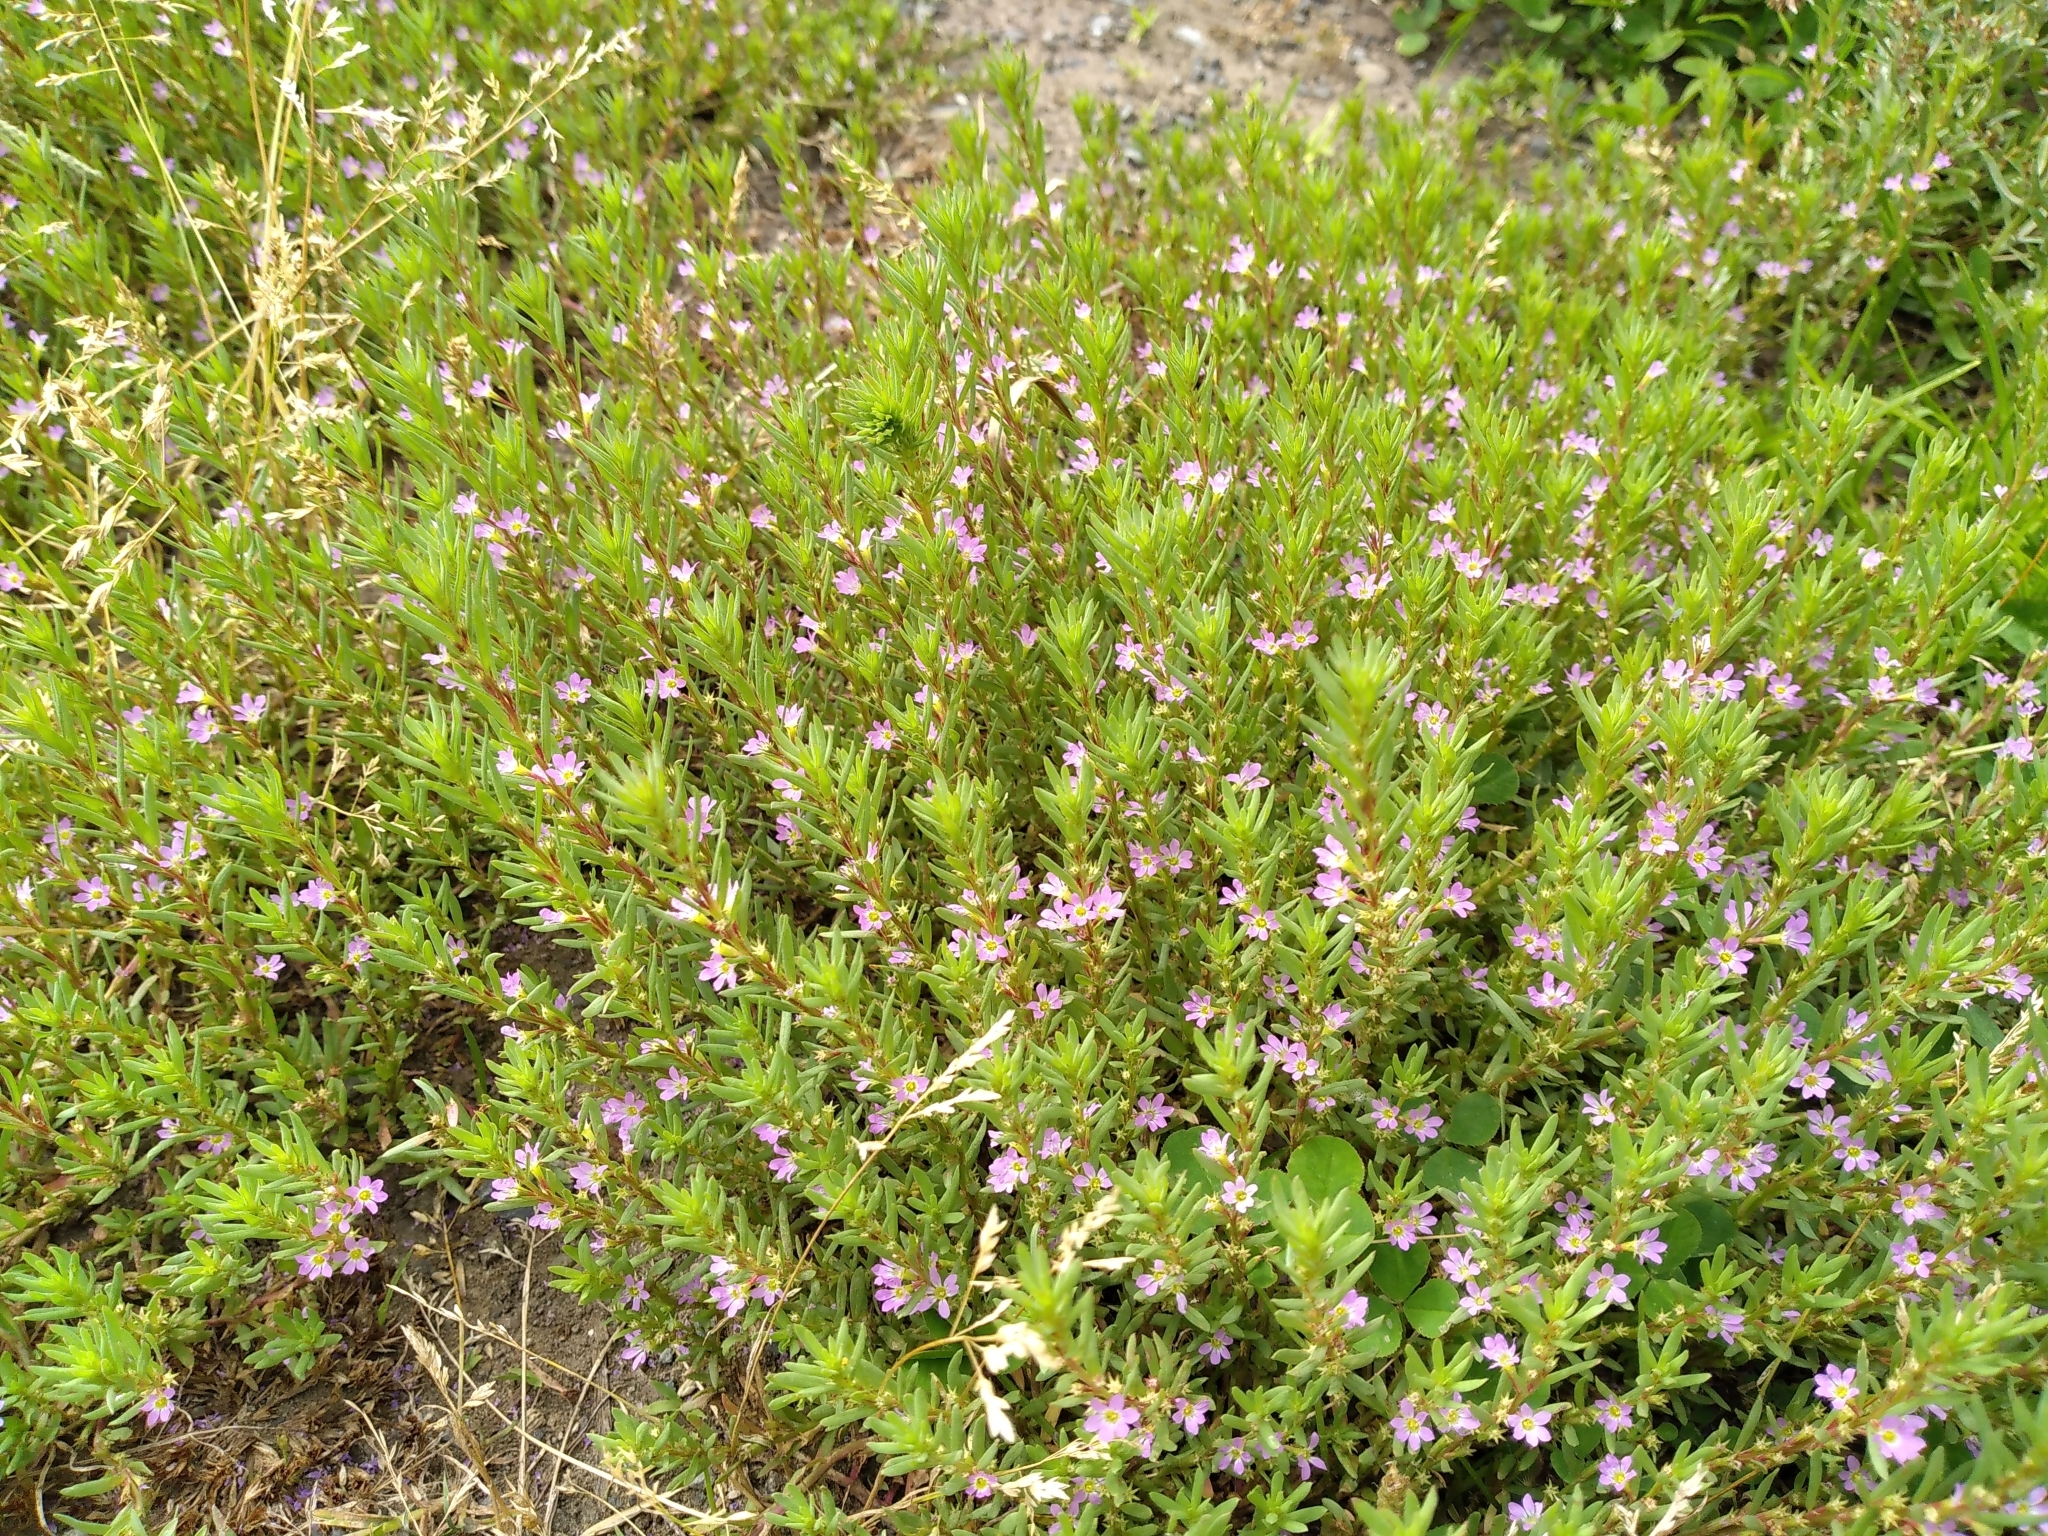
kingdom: Plantae
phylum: Tracheophyta
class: Magnoliopsida
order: Myrtales
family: Lythraceae
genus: Lythrum
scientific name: Lythrum hyssopifolia
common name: Grass-poly
